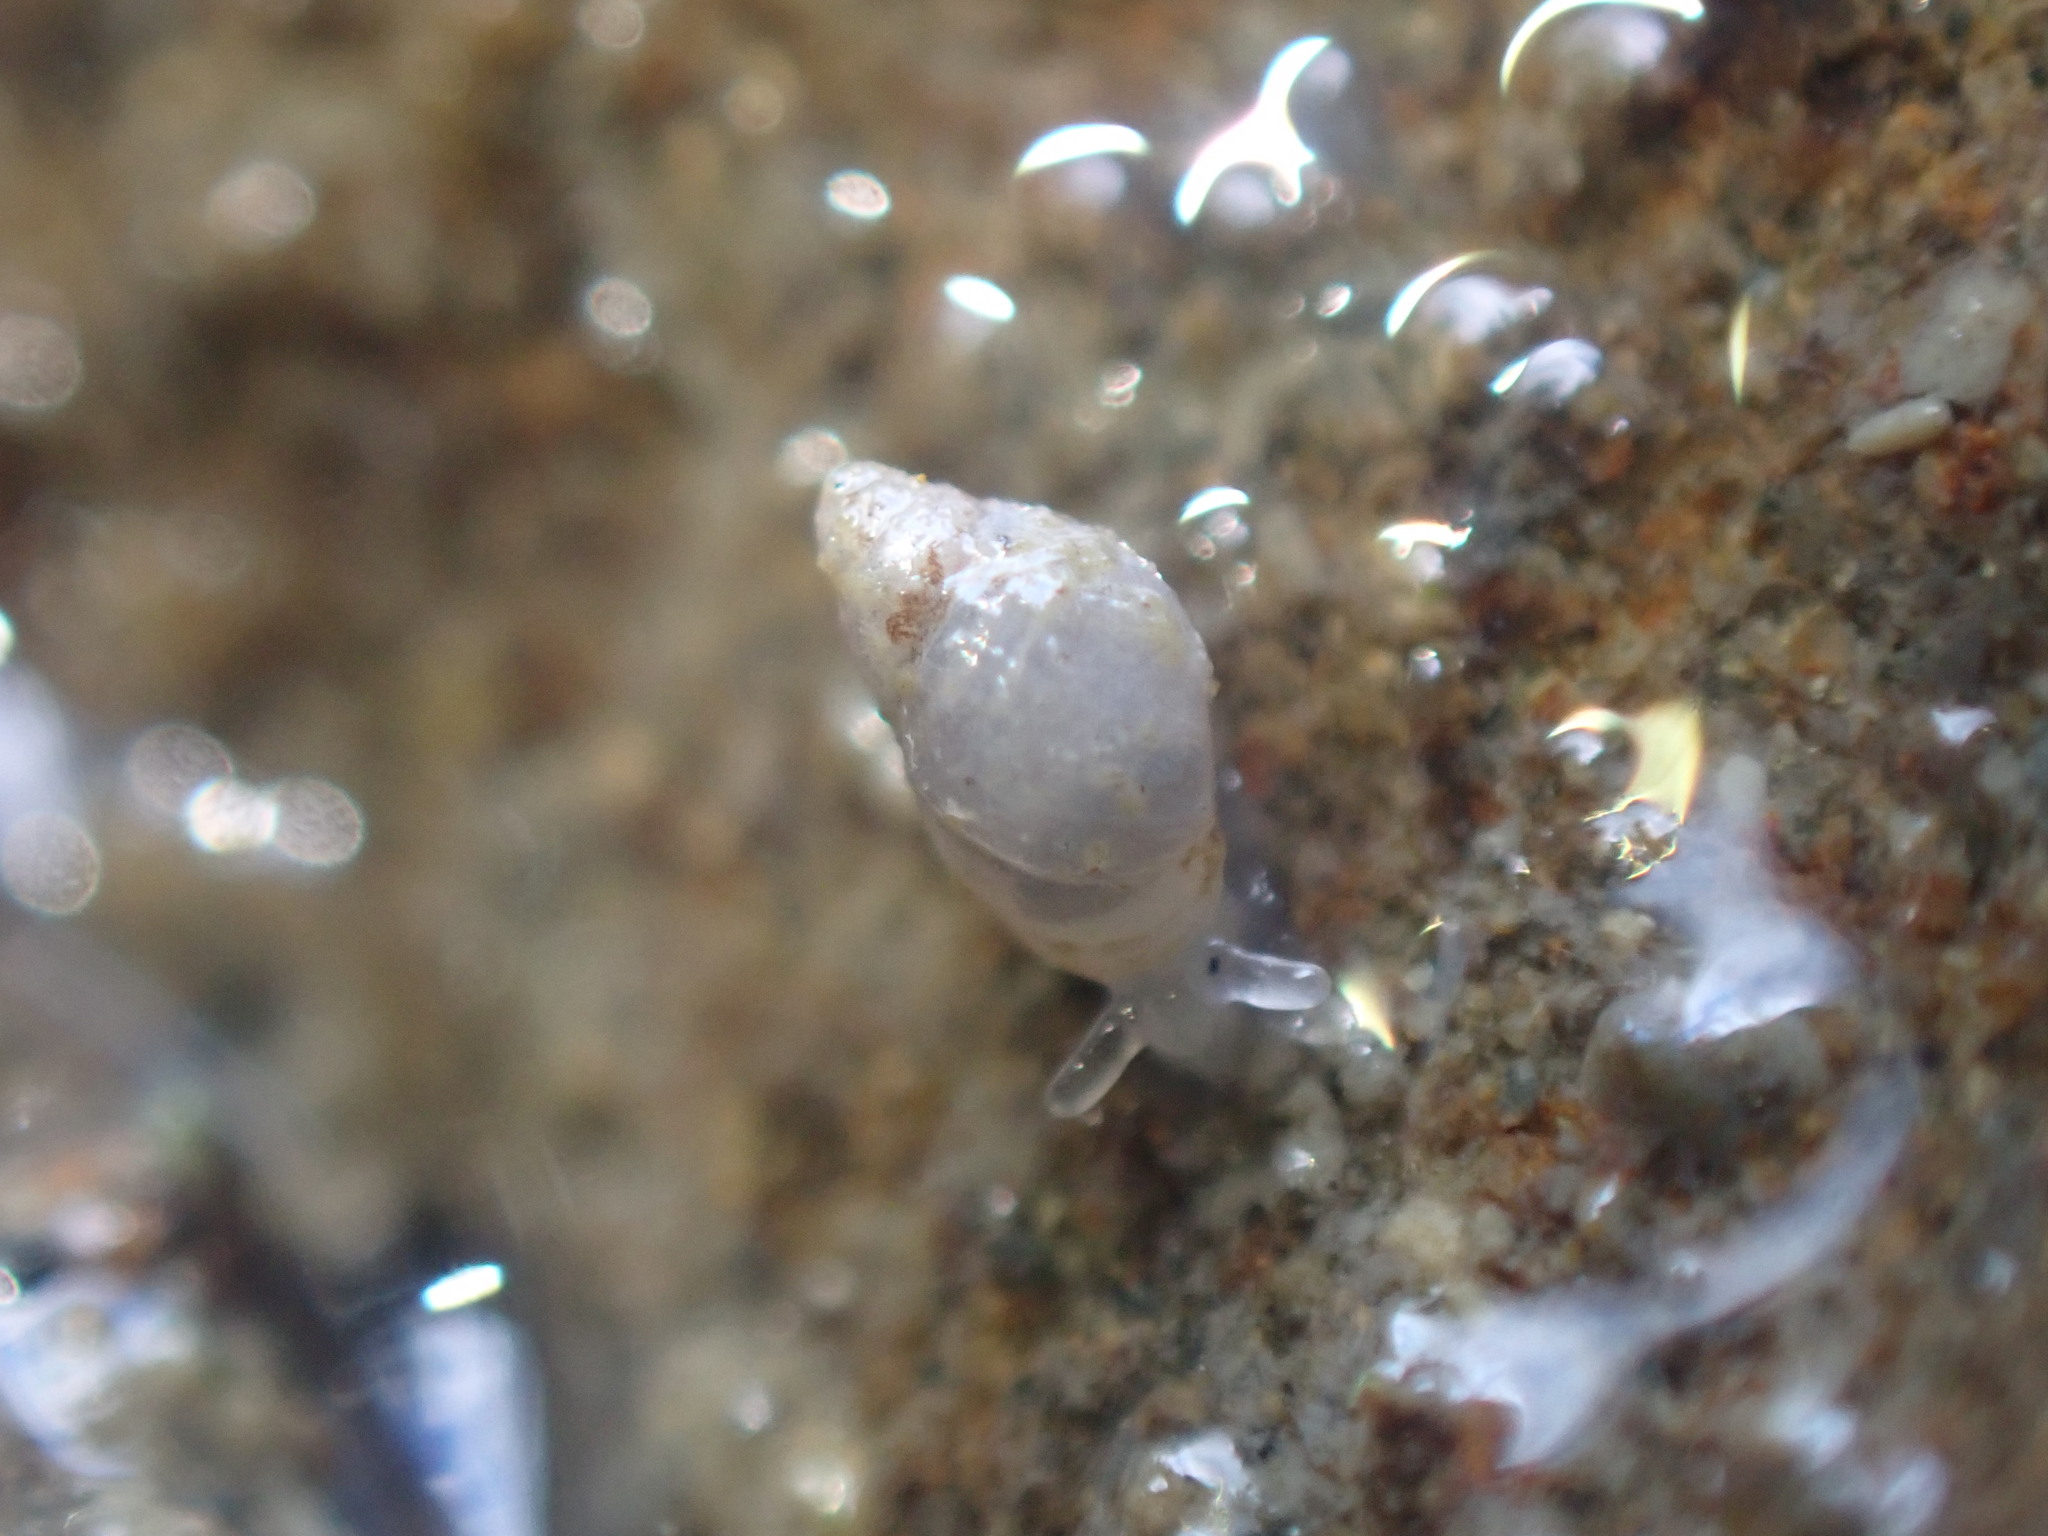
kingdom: Animalia
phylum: Mollusca
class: Gastropoda
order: Ellobiida
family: Ellobiidae
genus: Leuconopsis
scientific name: Leuconopsis obsoleta
